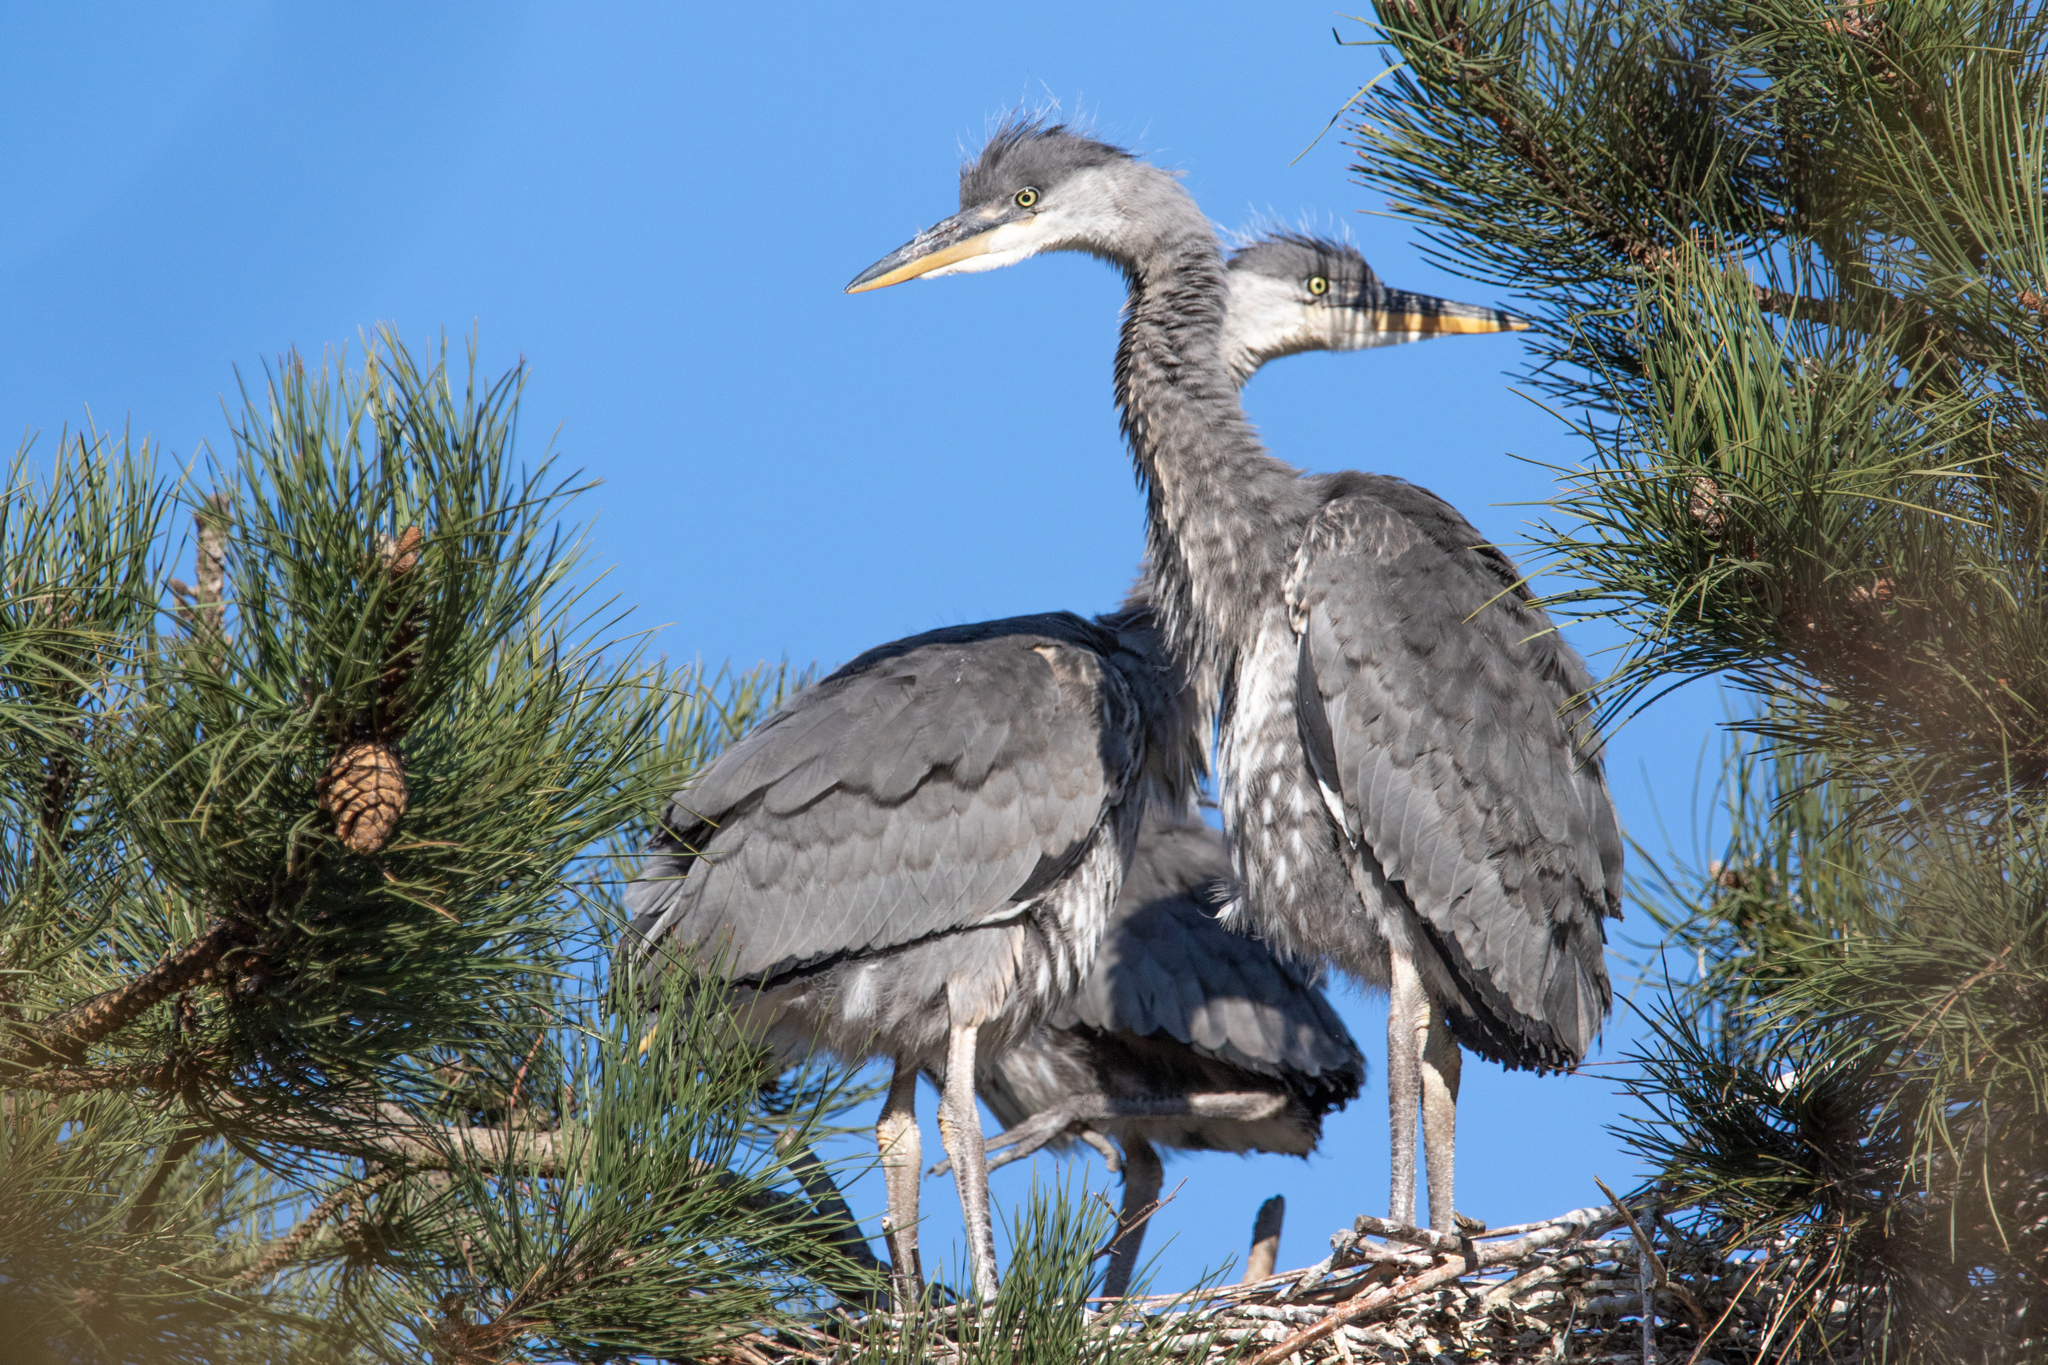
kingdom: Animalia
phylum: Chordata
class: Aves
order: Pelecaniformes
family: Ardeidae
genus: Ardea
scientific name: Ardea cinerea
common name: Grey heron
